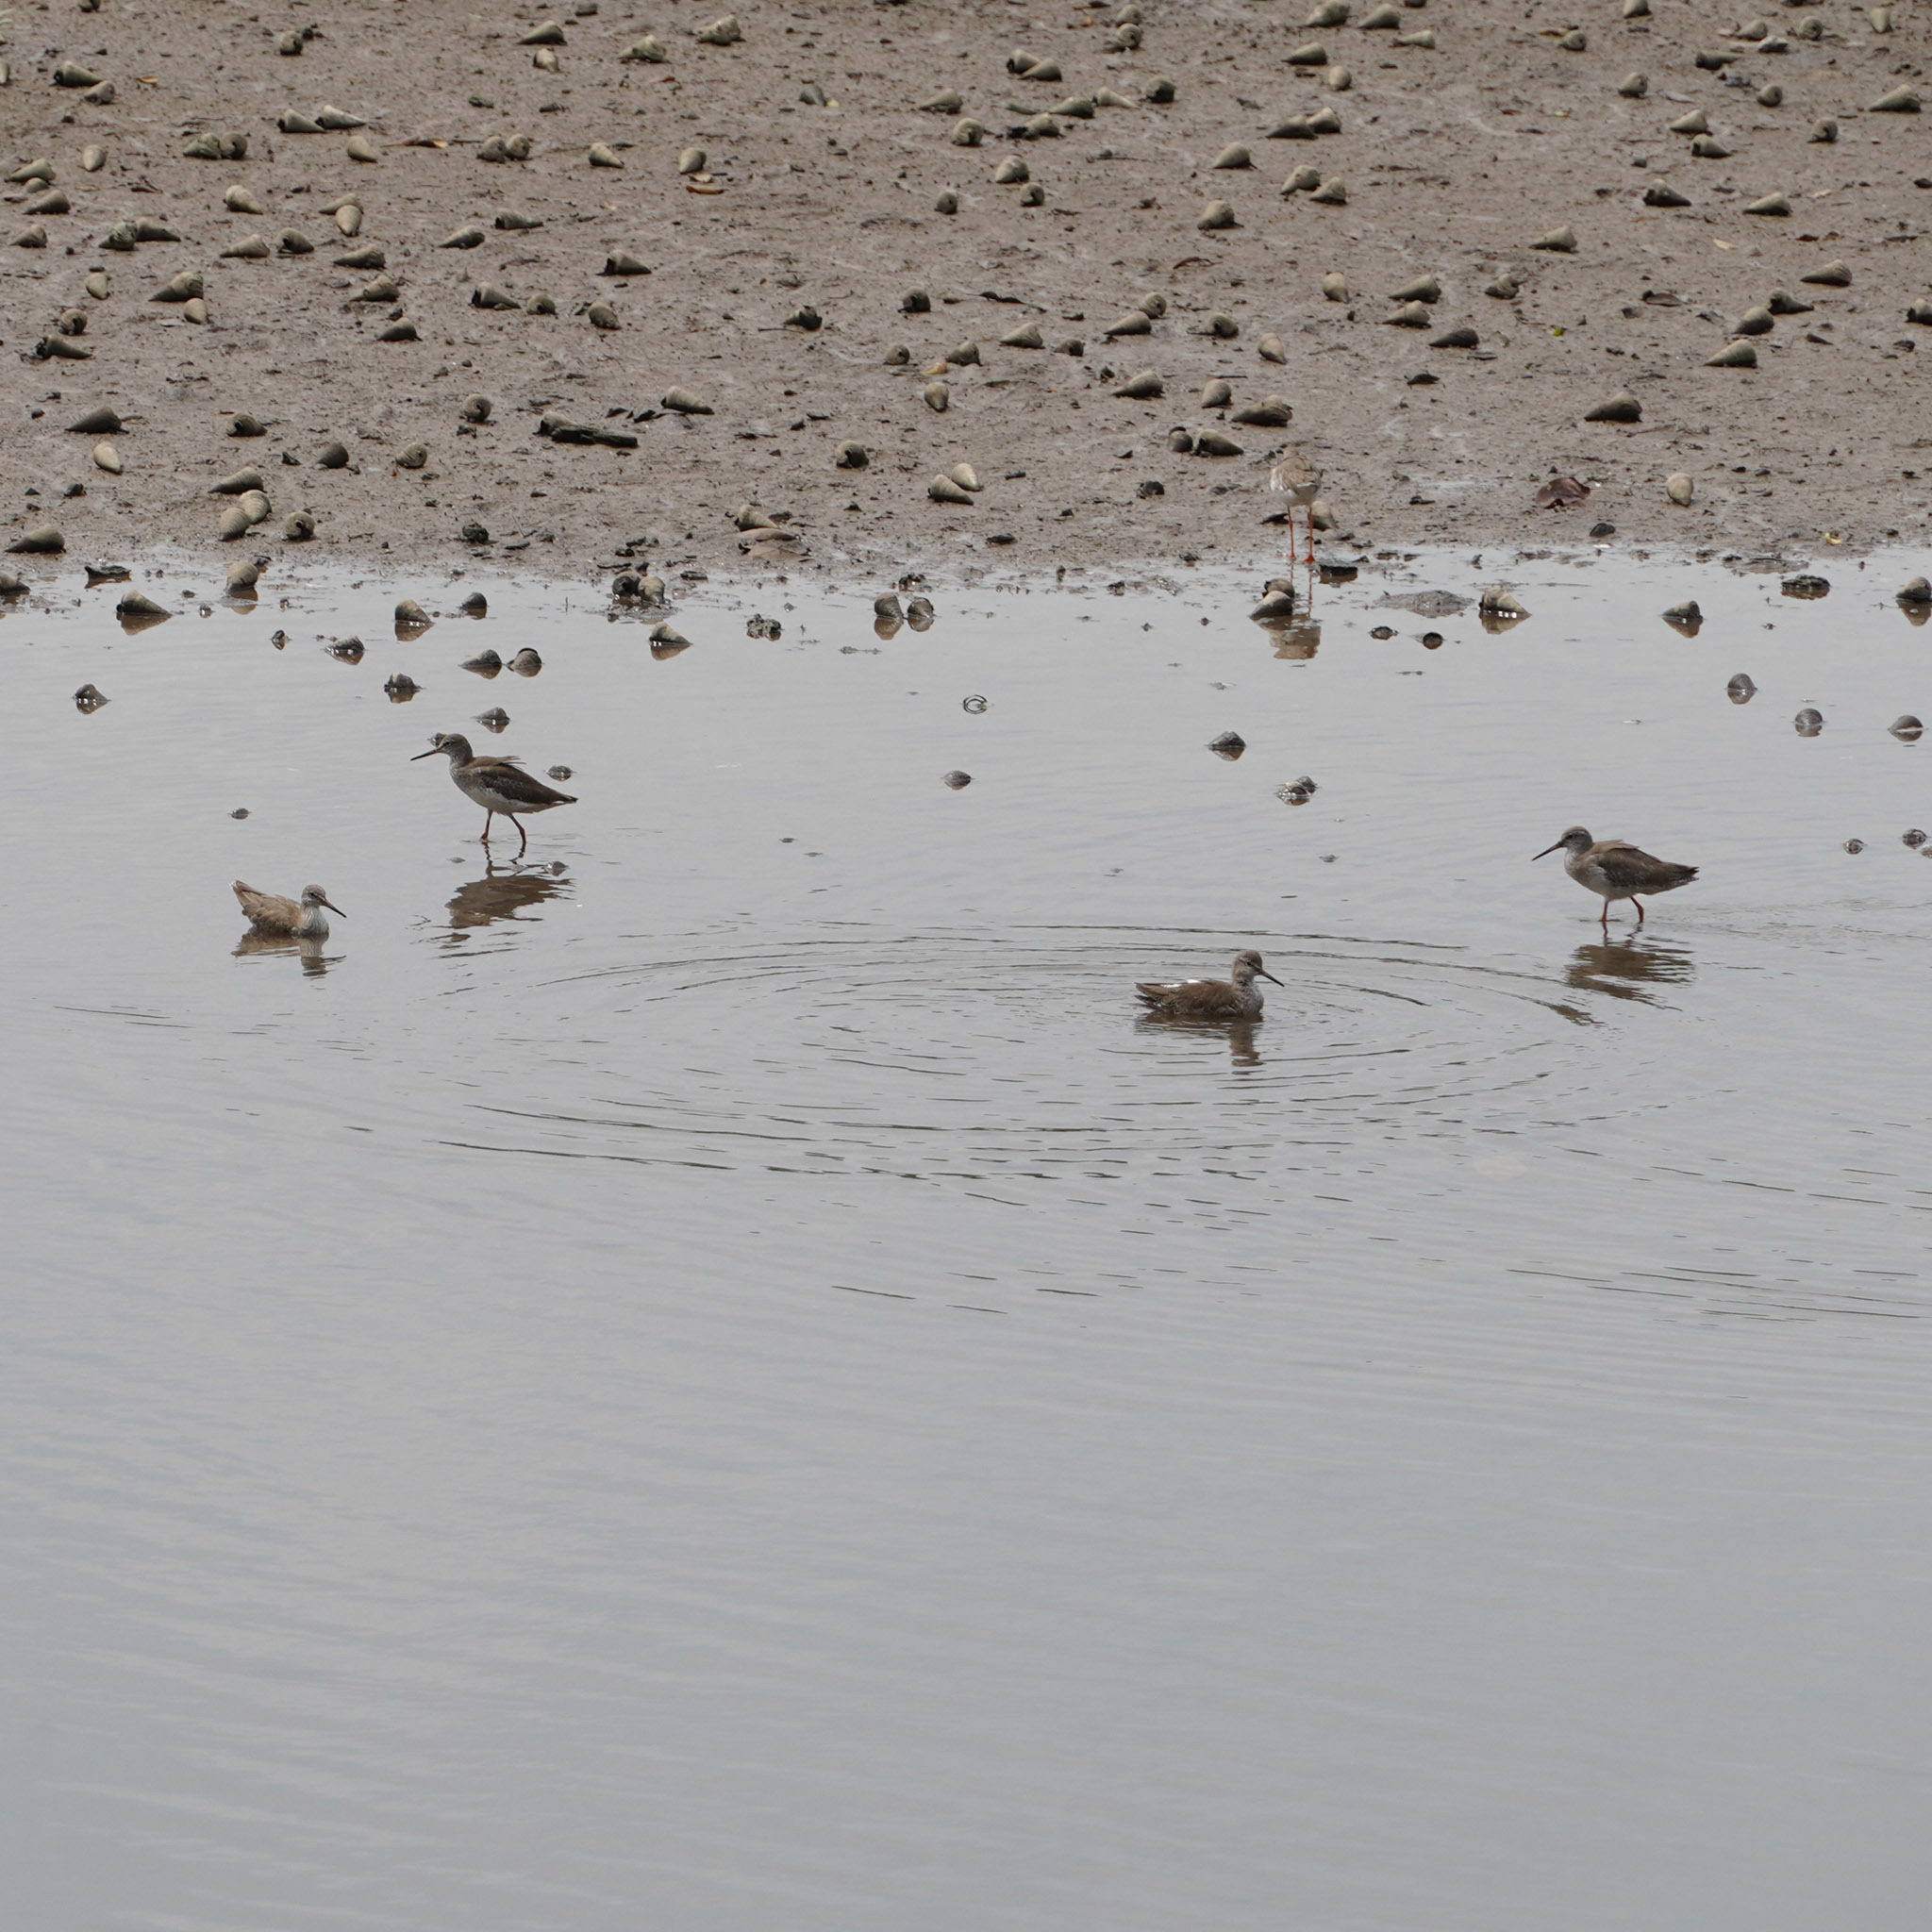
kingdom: Animalia
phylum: Chordata
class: Aves
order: Charadriiformes
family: Scolopacidae
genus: Tringa
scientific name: Tringa totanus
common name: Common redshank
